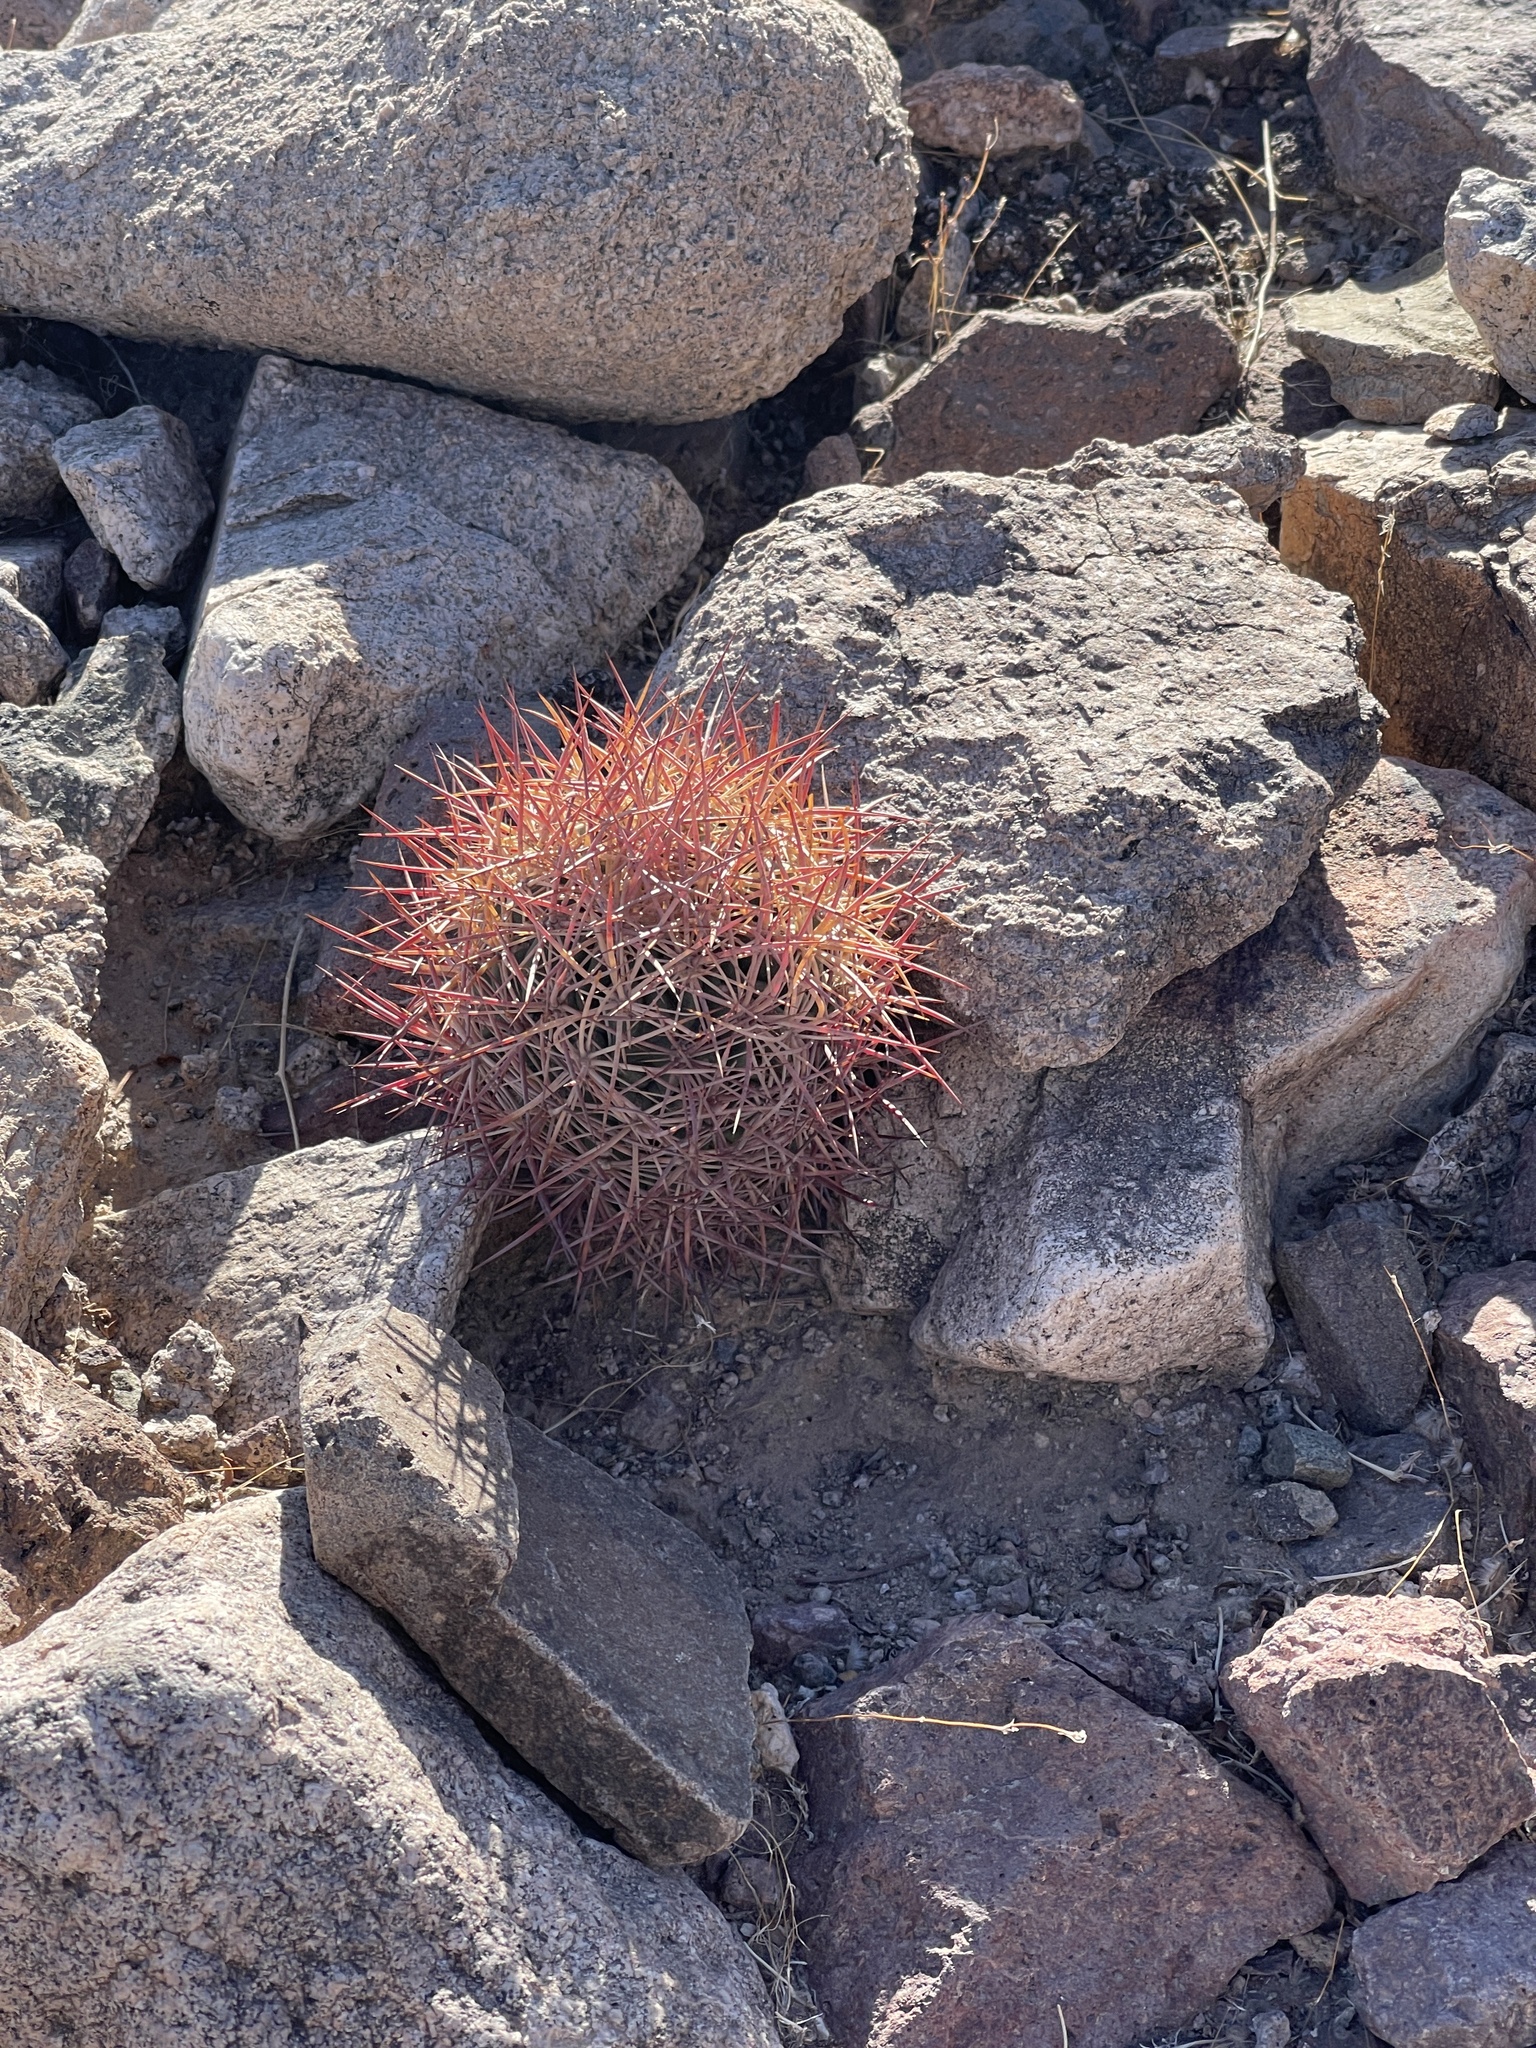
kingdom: Plantae
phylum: Tracheophyta
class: Magnoliopsida
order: Caryophyllales
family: Cactaceae
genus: Sclerocactus
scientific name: Sclerocactus johnsonii
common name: Eight-spine fishhook cactus
